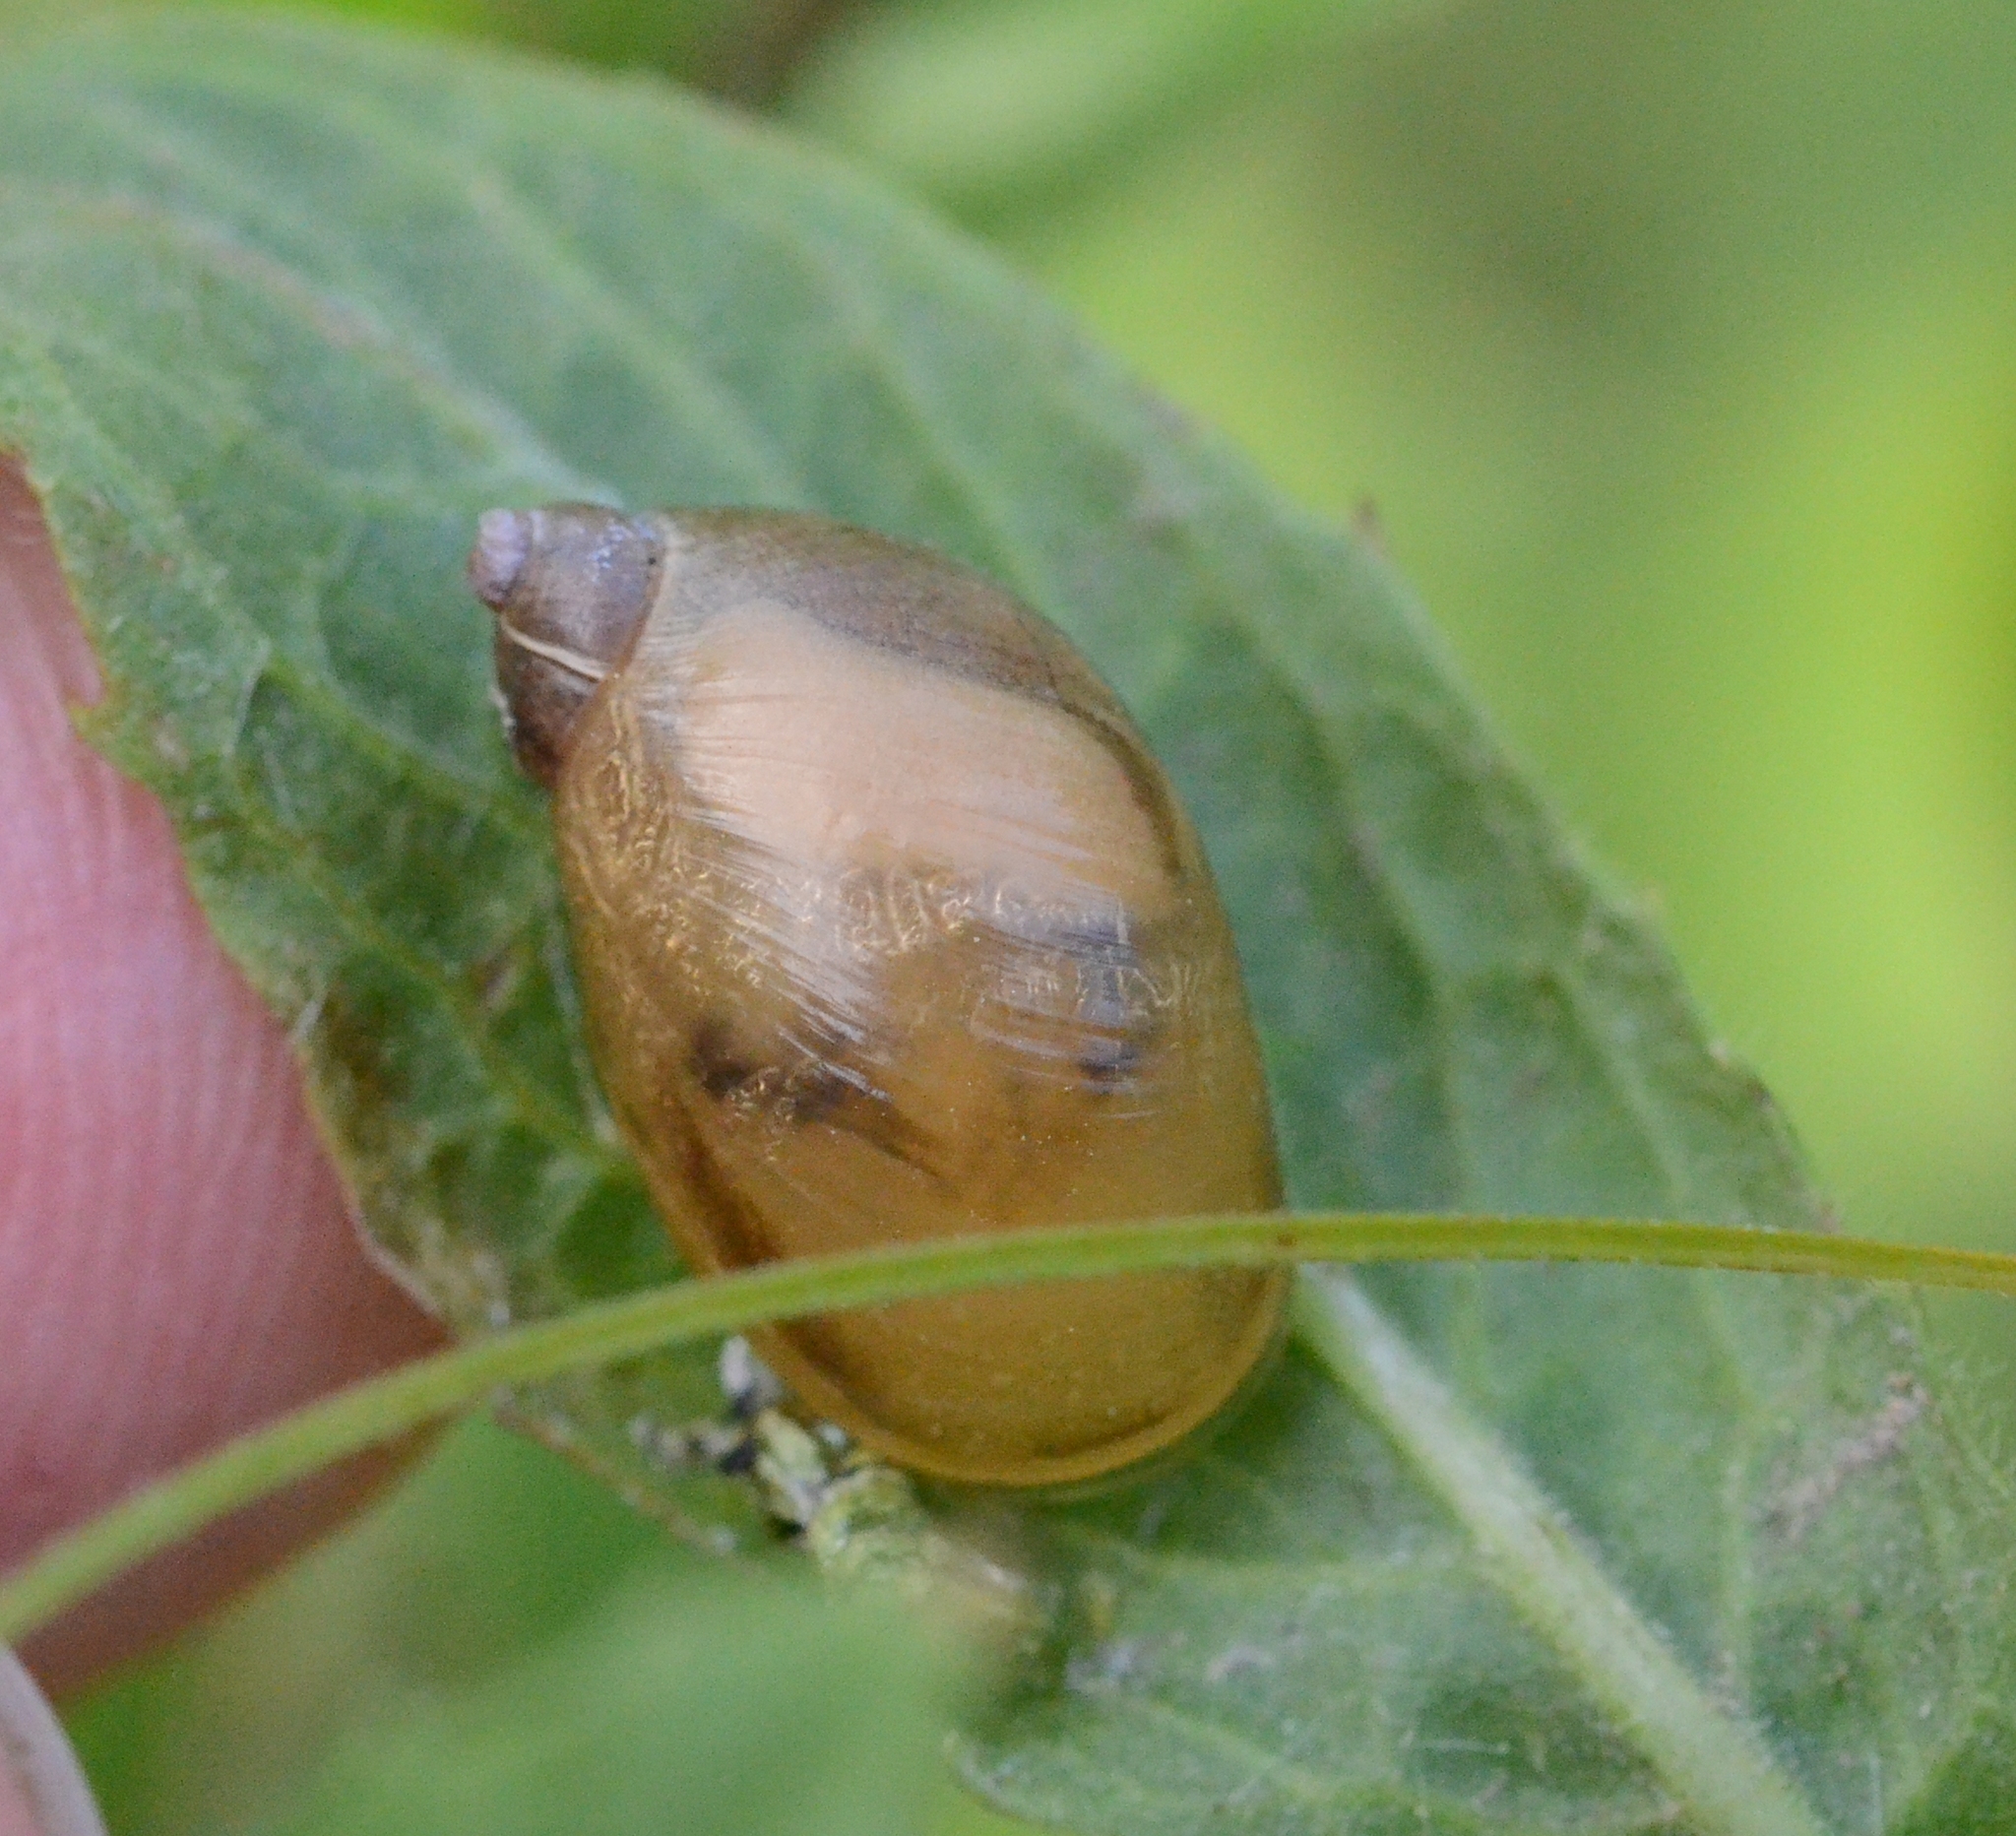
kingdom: Animalia
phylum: Mollusca
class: Gastropoda
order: Stylommatophora
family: Succineidae
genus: Succinea
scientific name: Succinea putris
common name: European ambersnail
